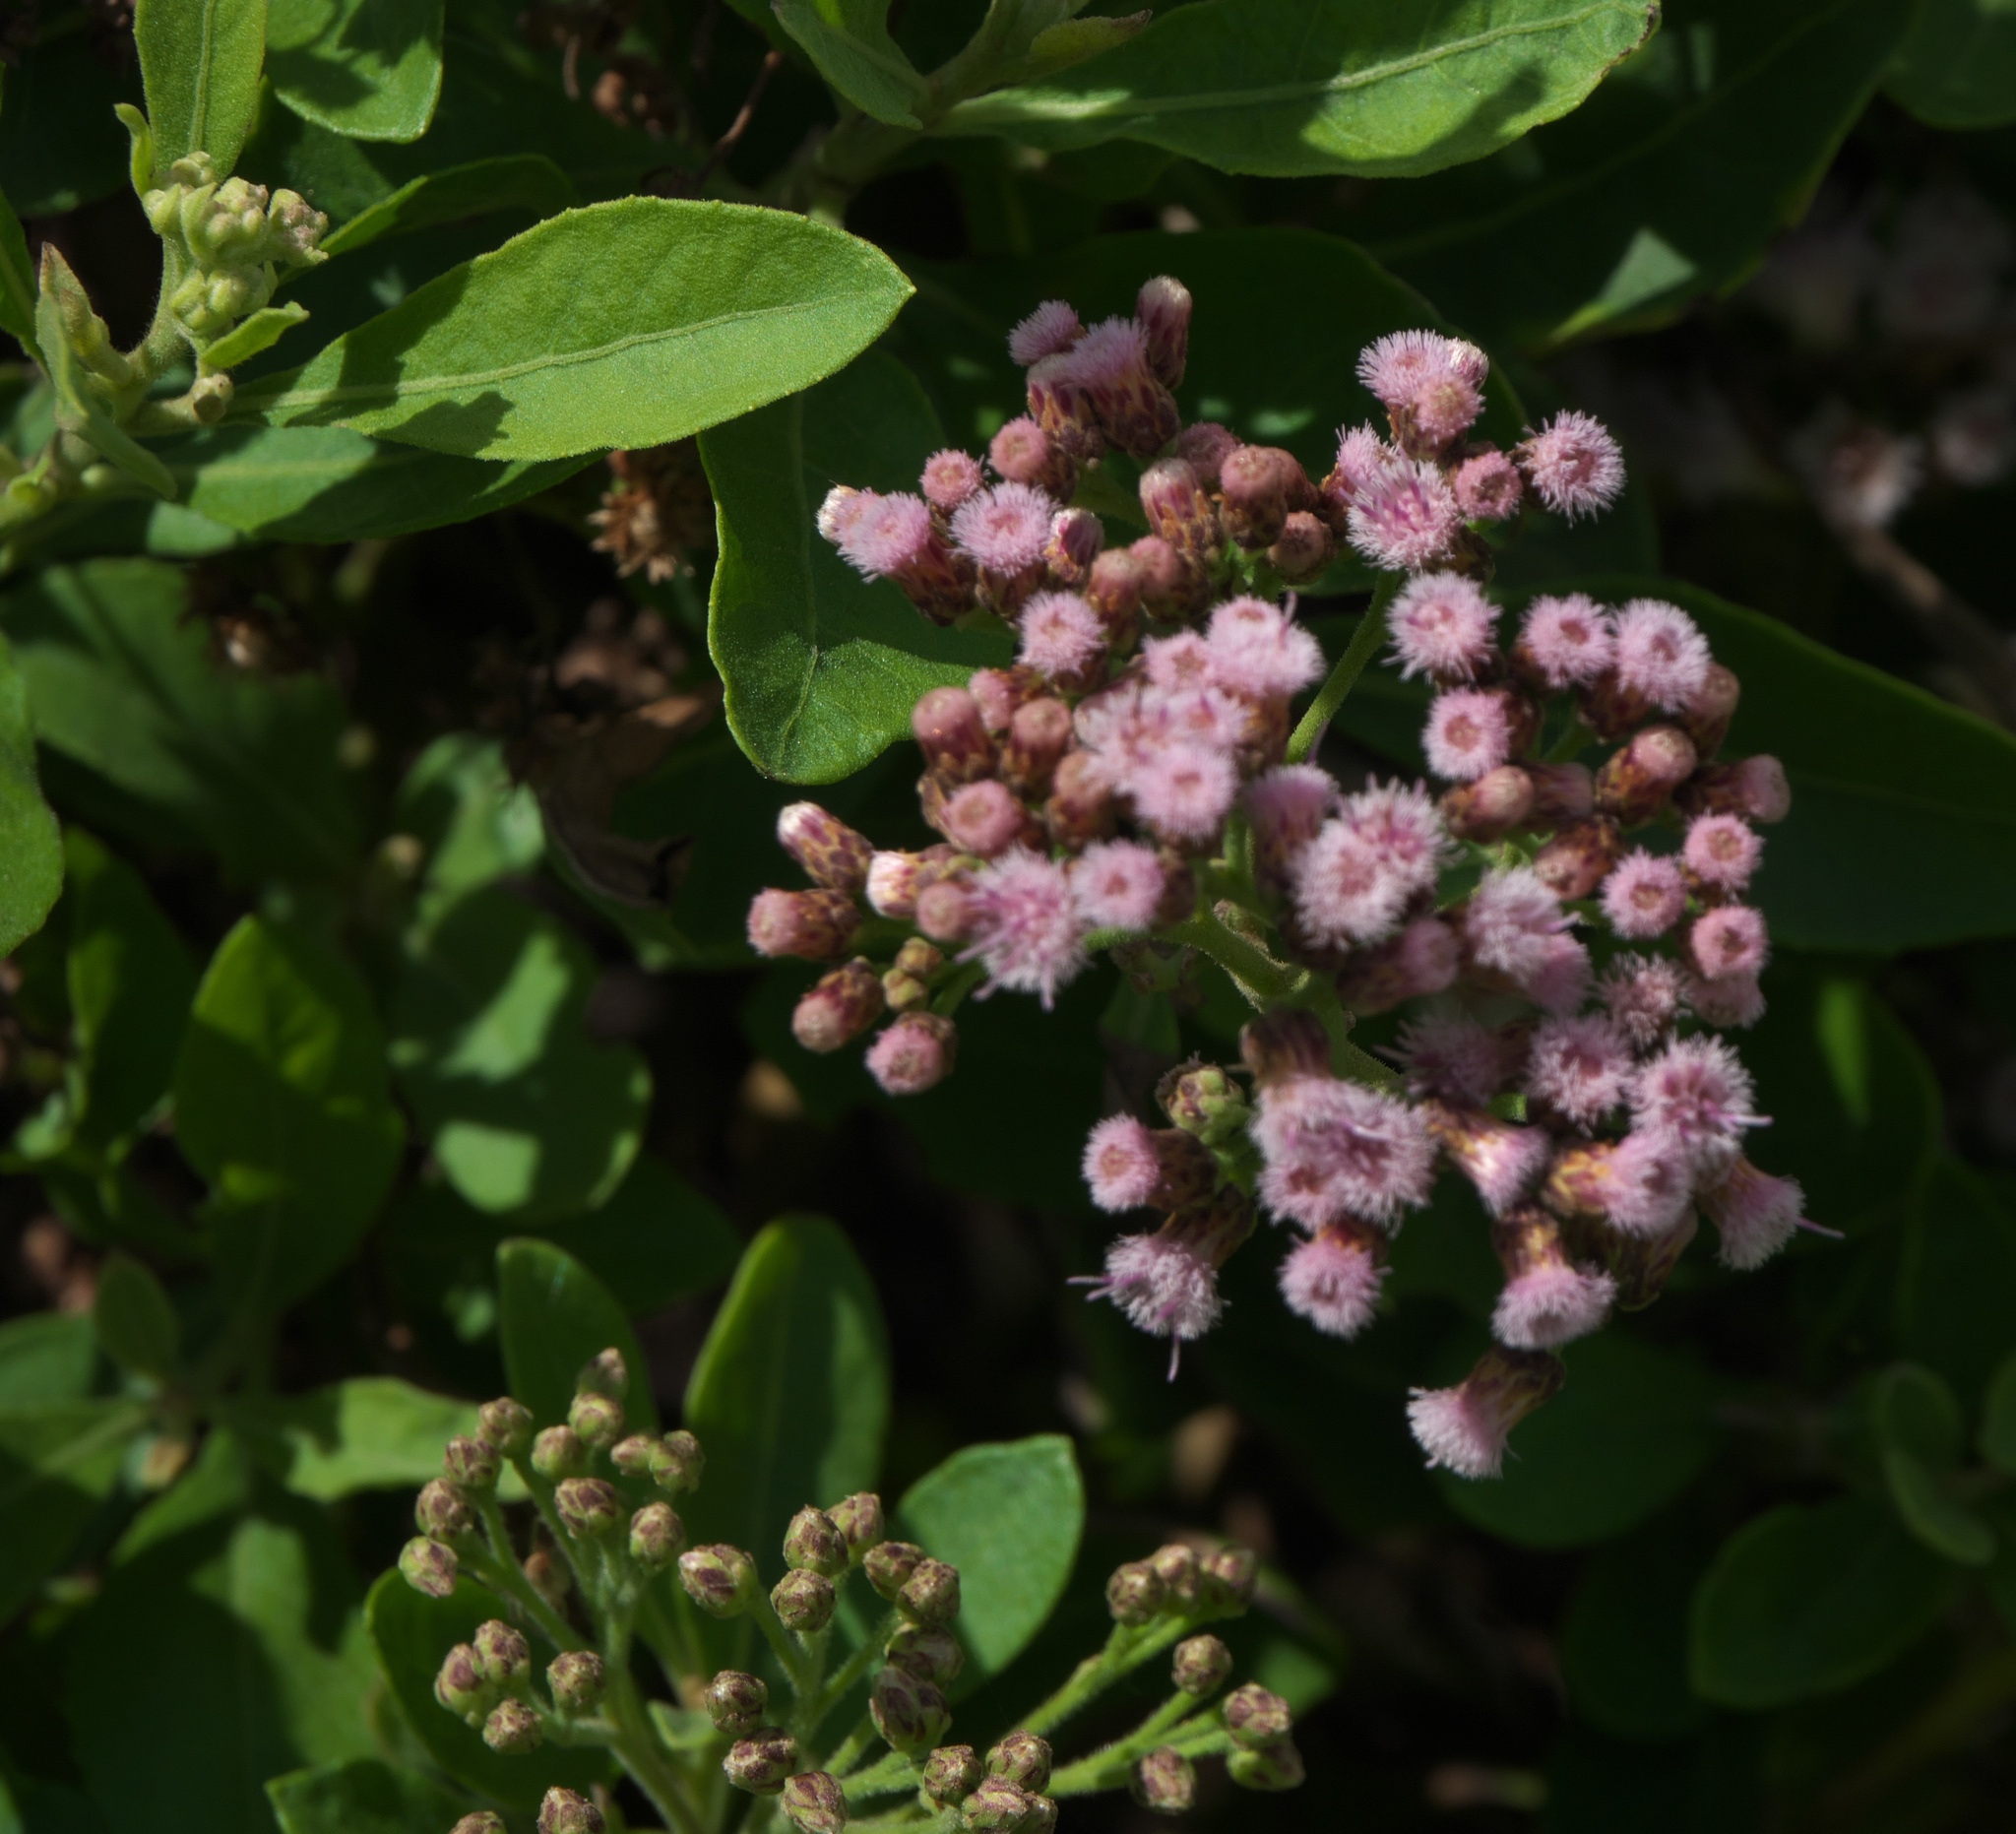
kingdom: Plantae
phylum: Tracheophyta
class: Magnoliopsida
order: Asterales
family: Asteraceae
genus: Pluchea
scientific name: Pluchea fosbergii
